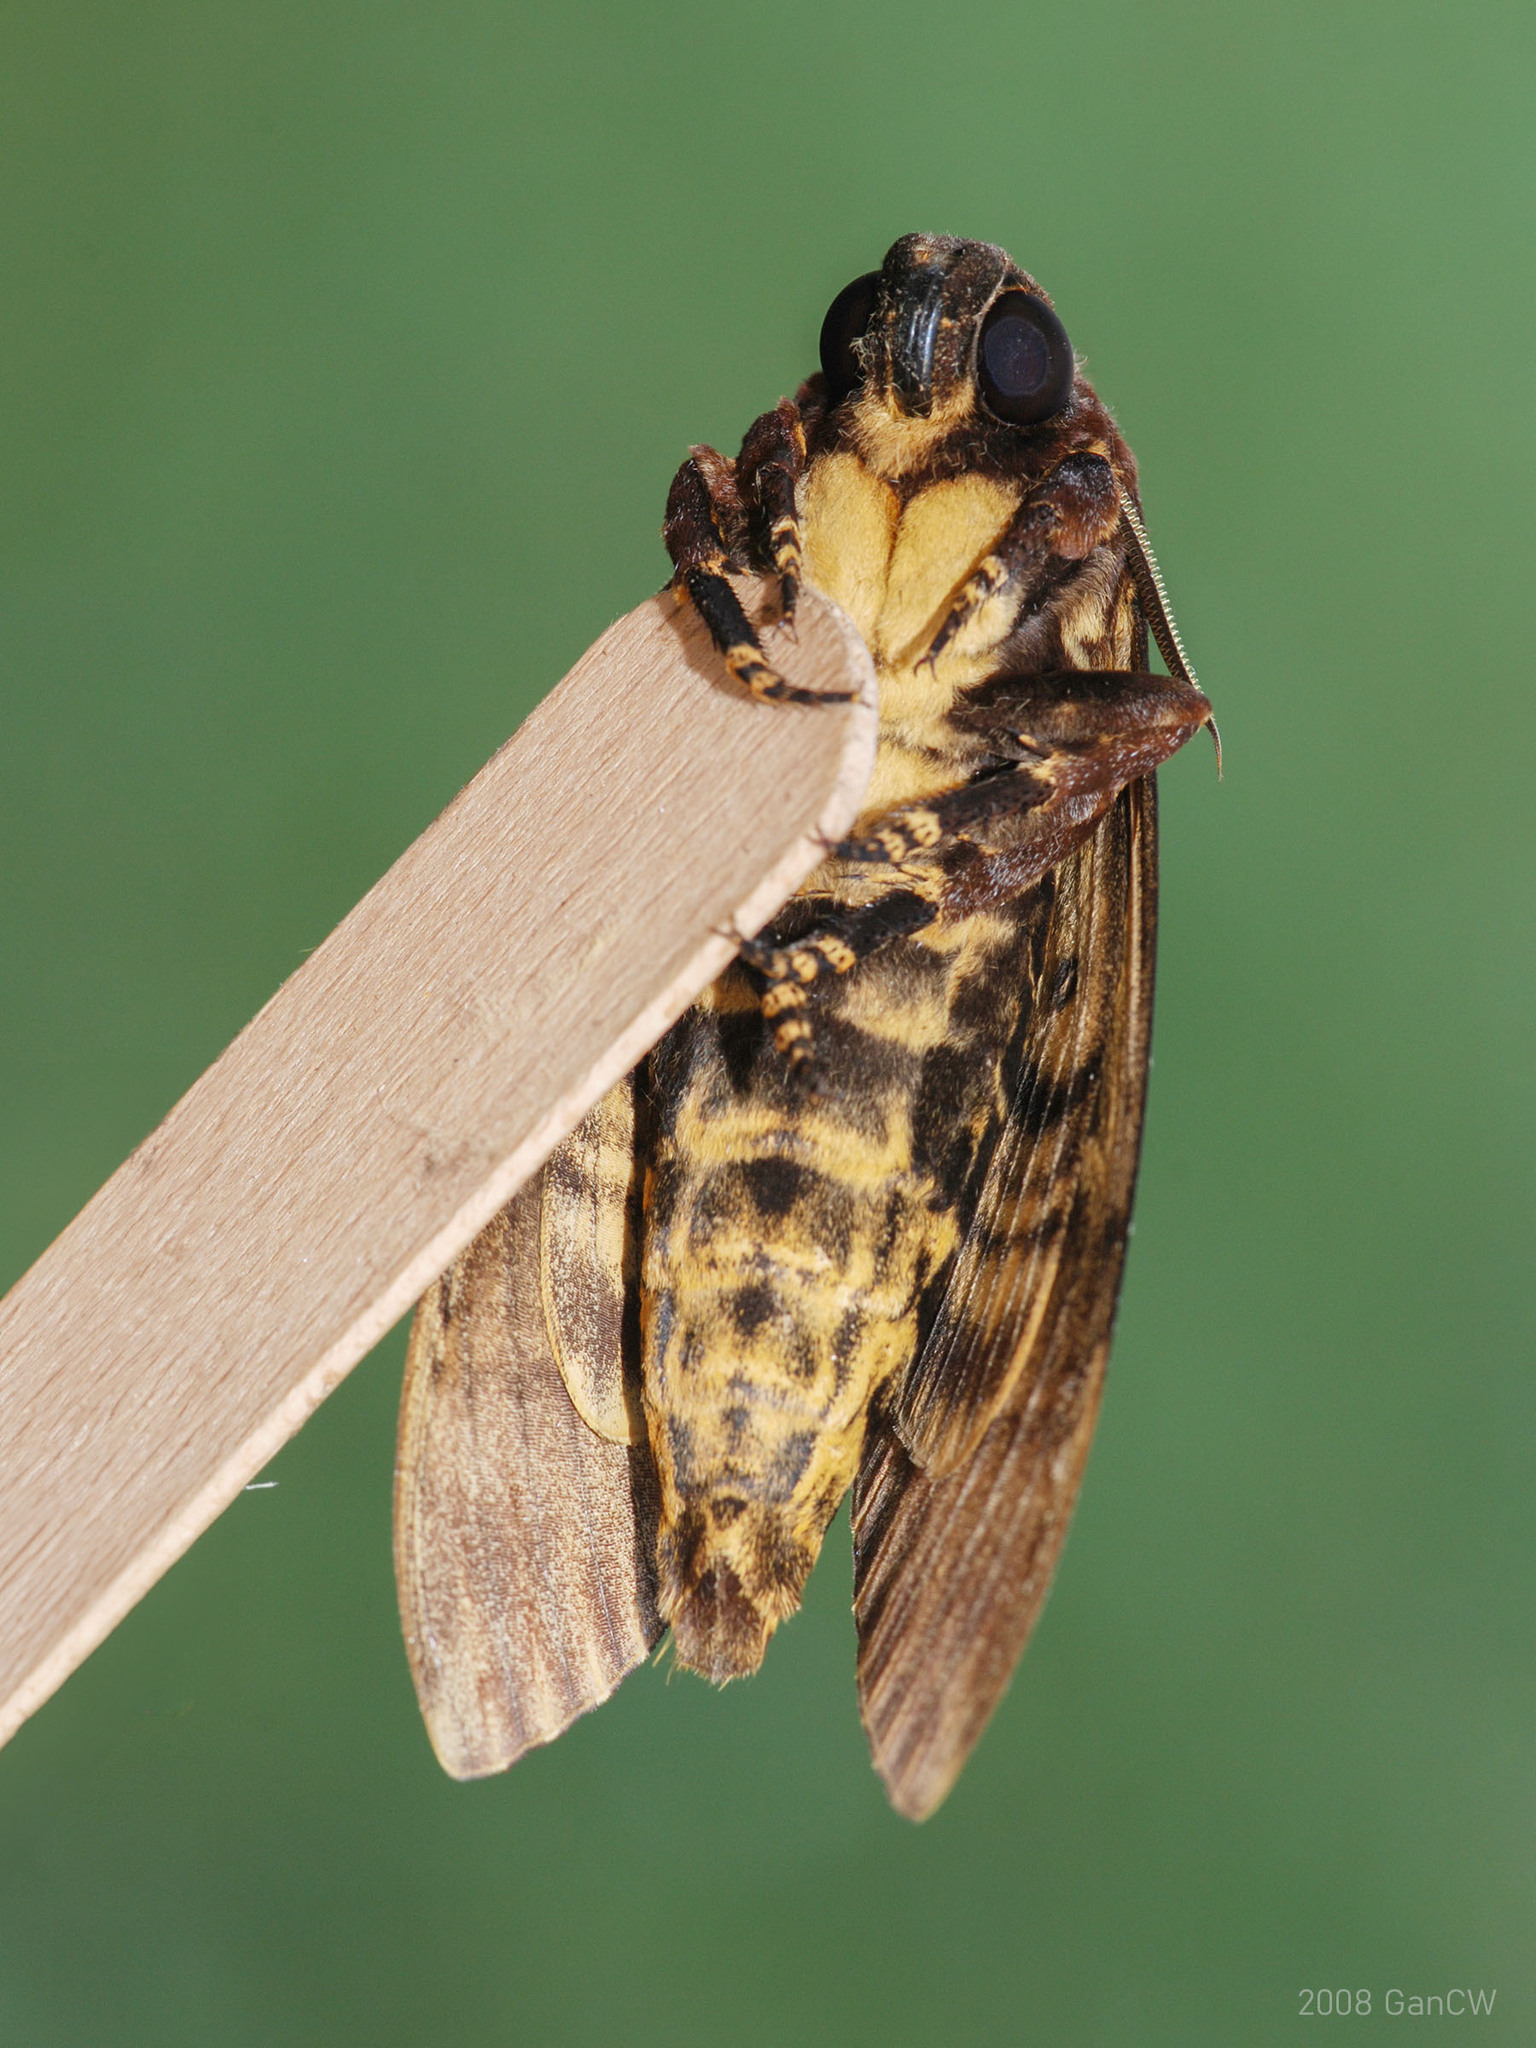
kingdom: Animalia
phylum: Arthropoda
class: Insecta
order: Lepidoptera
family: Sphingidae
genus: Acherontia
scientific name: Acherontia lachesis
